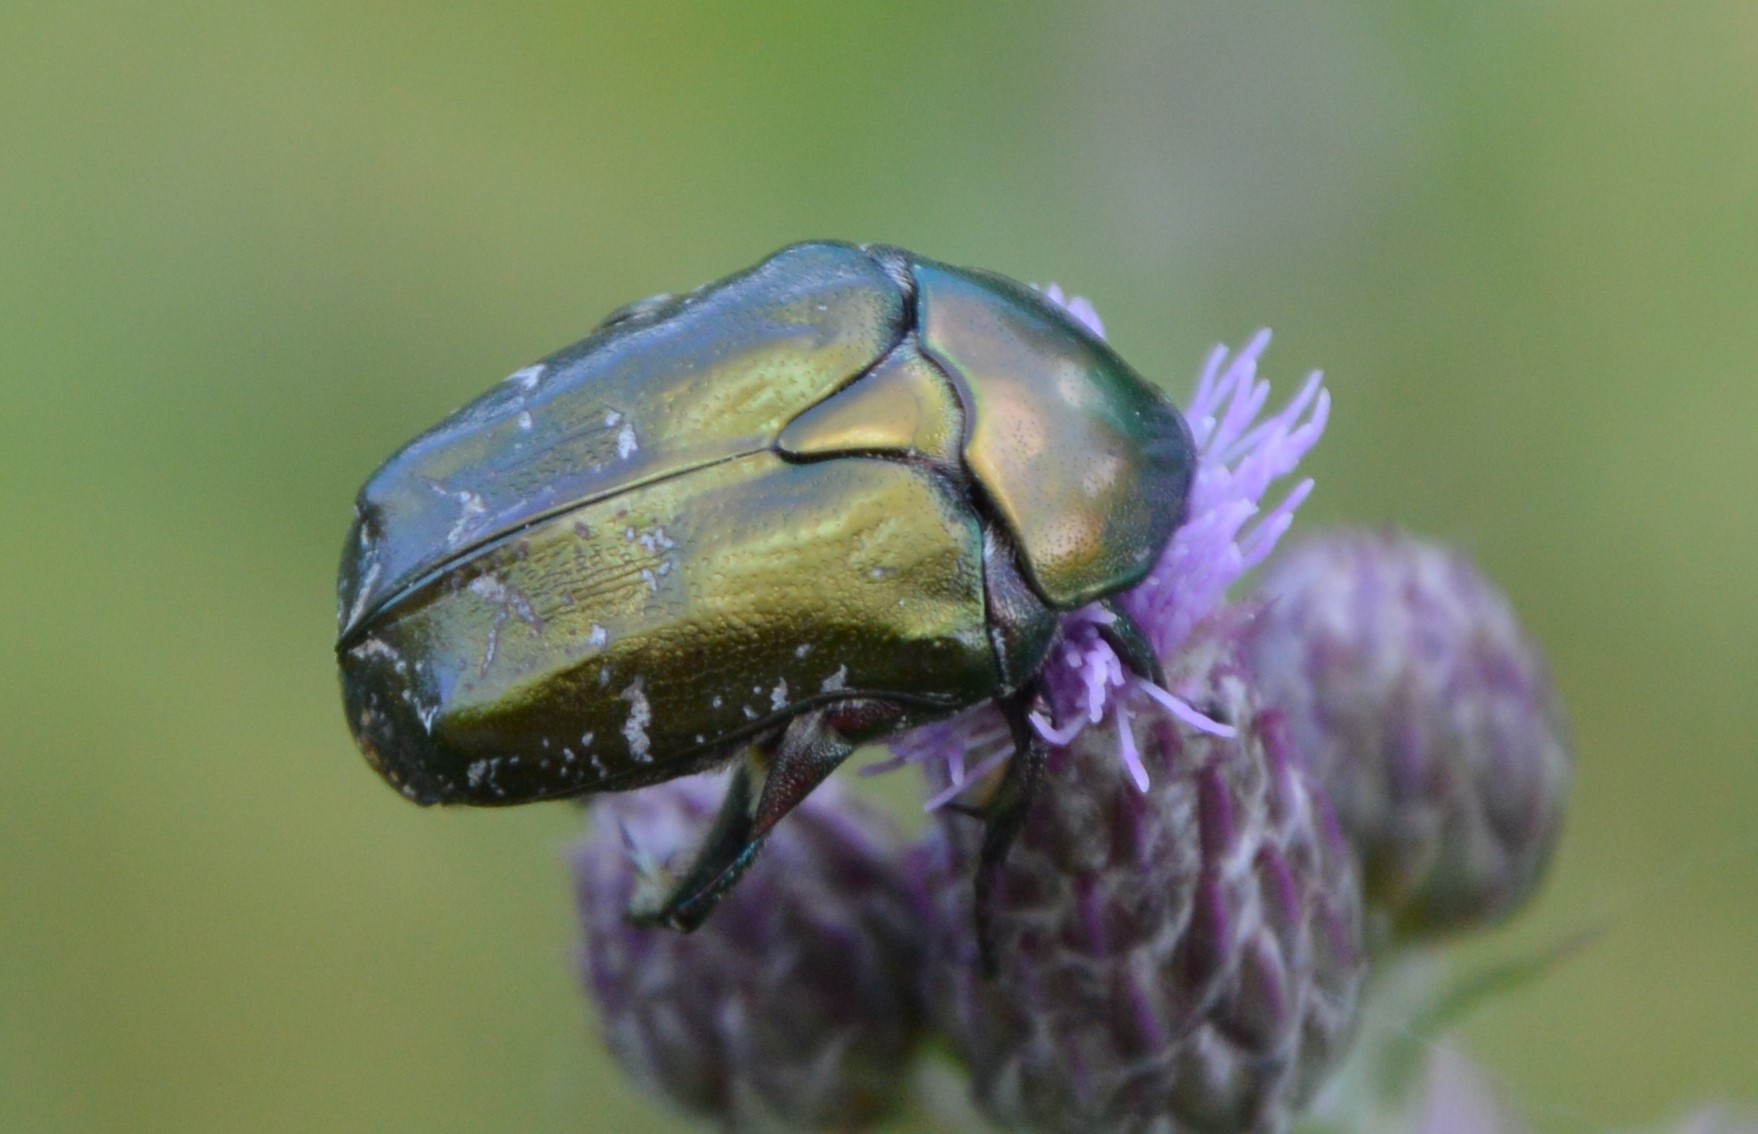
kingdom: Animalia
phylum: Arthropoda
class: Insecta
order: Coleoptera
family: Scarabaeidae
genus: Protaetia
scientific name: Protaetia cuprea
